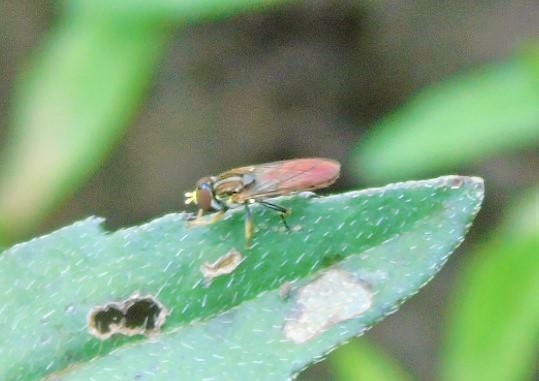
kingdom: Animalia
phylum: Arthropoda
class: Insecta
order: Diptera
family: Syrphidae
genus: Toxomerus
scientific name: Toxomerus
